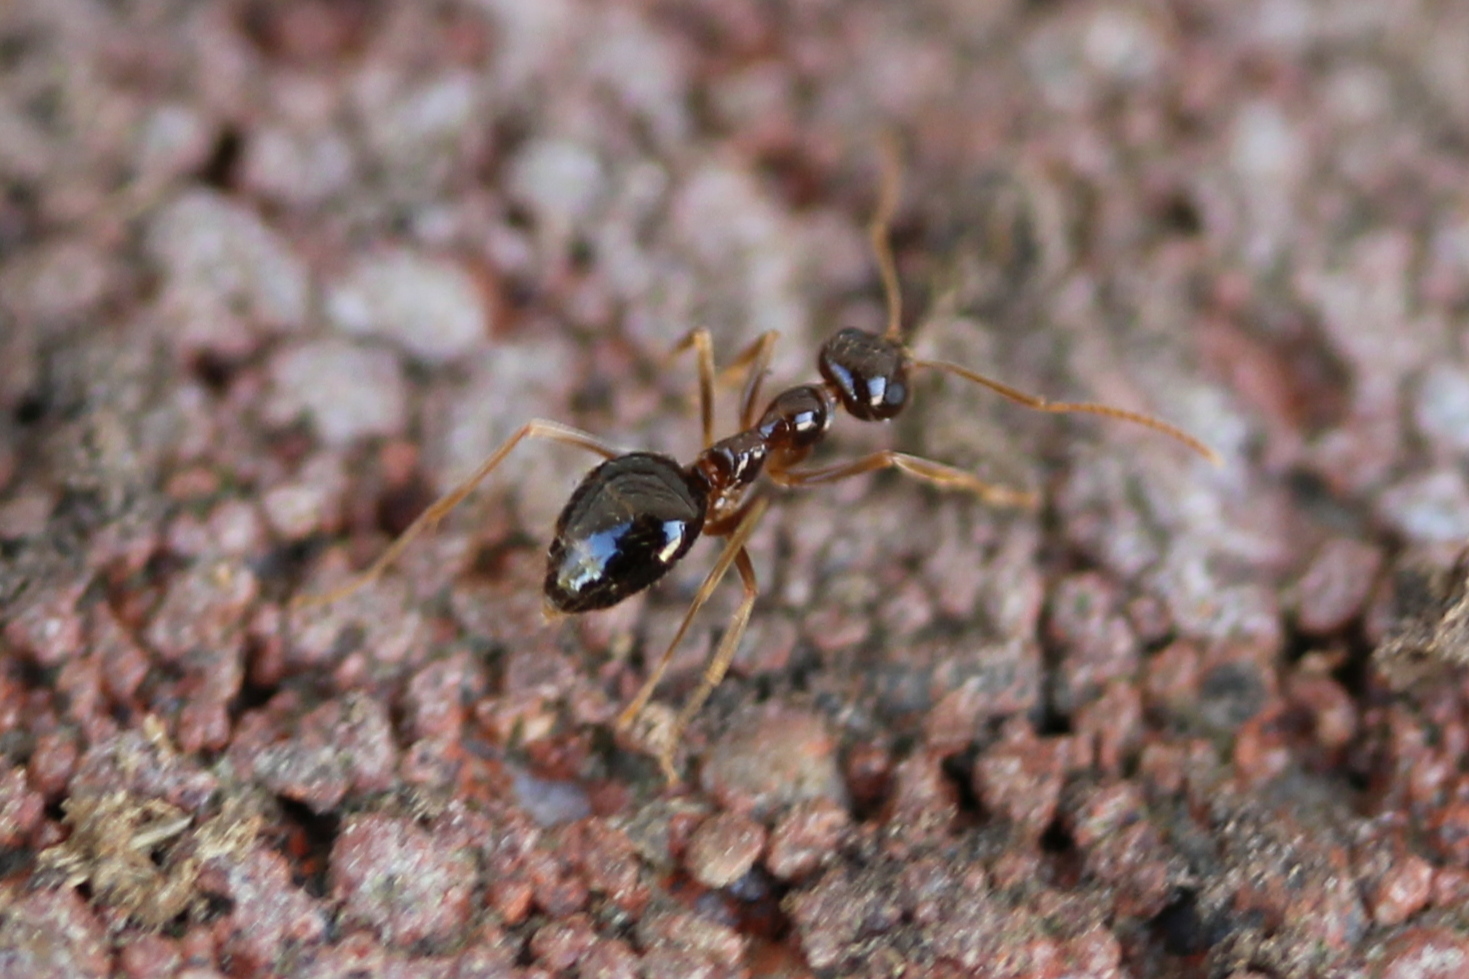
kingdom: Animalia
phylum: Arthropoda
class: Insecta
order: Hymenoptera
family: Formicidae
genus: Prenolepis
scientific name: Prenolepis imparis
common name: Small honey ant
